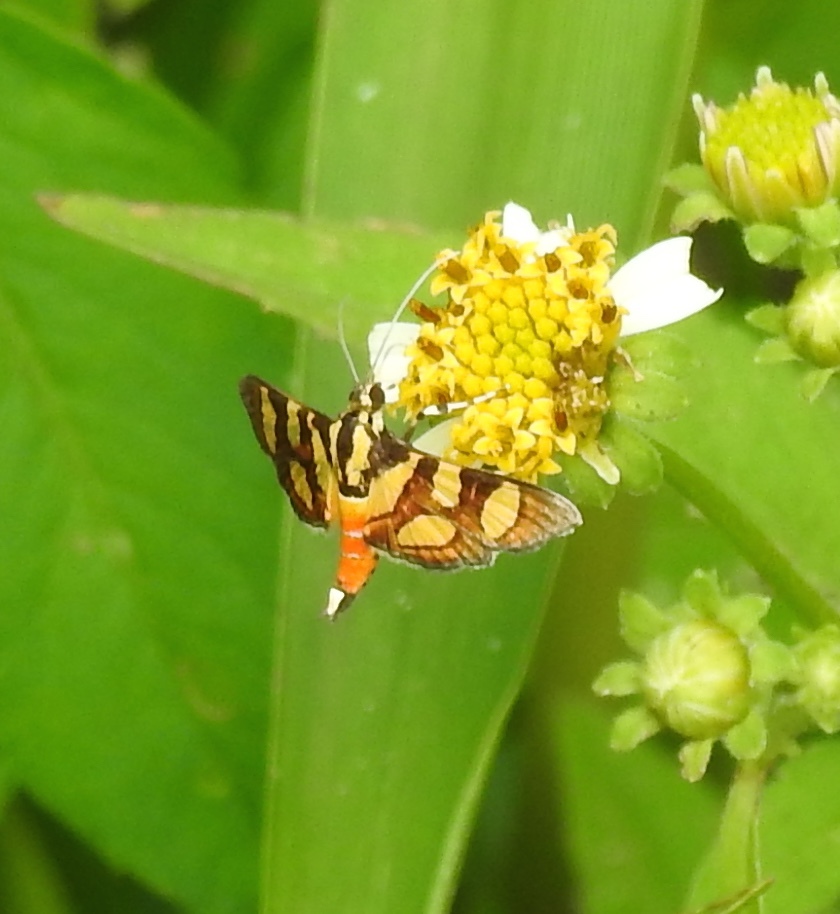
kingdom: Animalia
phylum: Arthropoda
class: Insecta
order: Lepidoptera
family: Crambidae
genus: Syngamia
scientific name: Syngamia florella
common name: Orange-spotted flower moth
